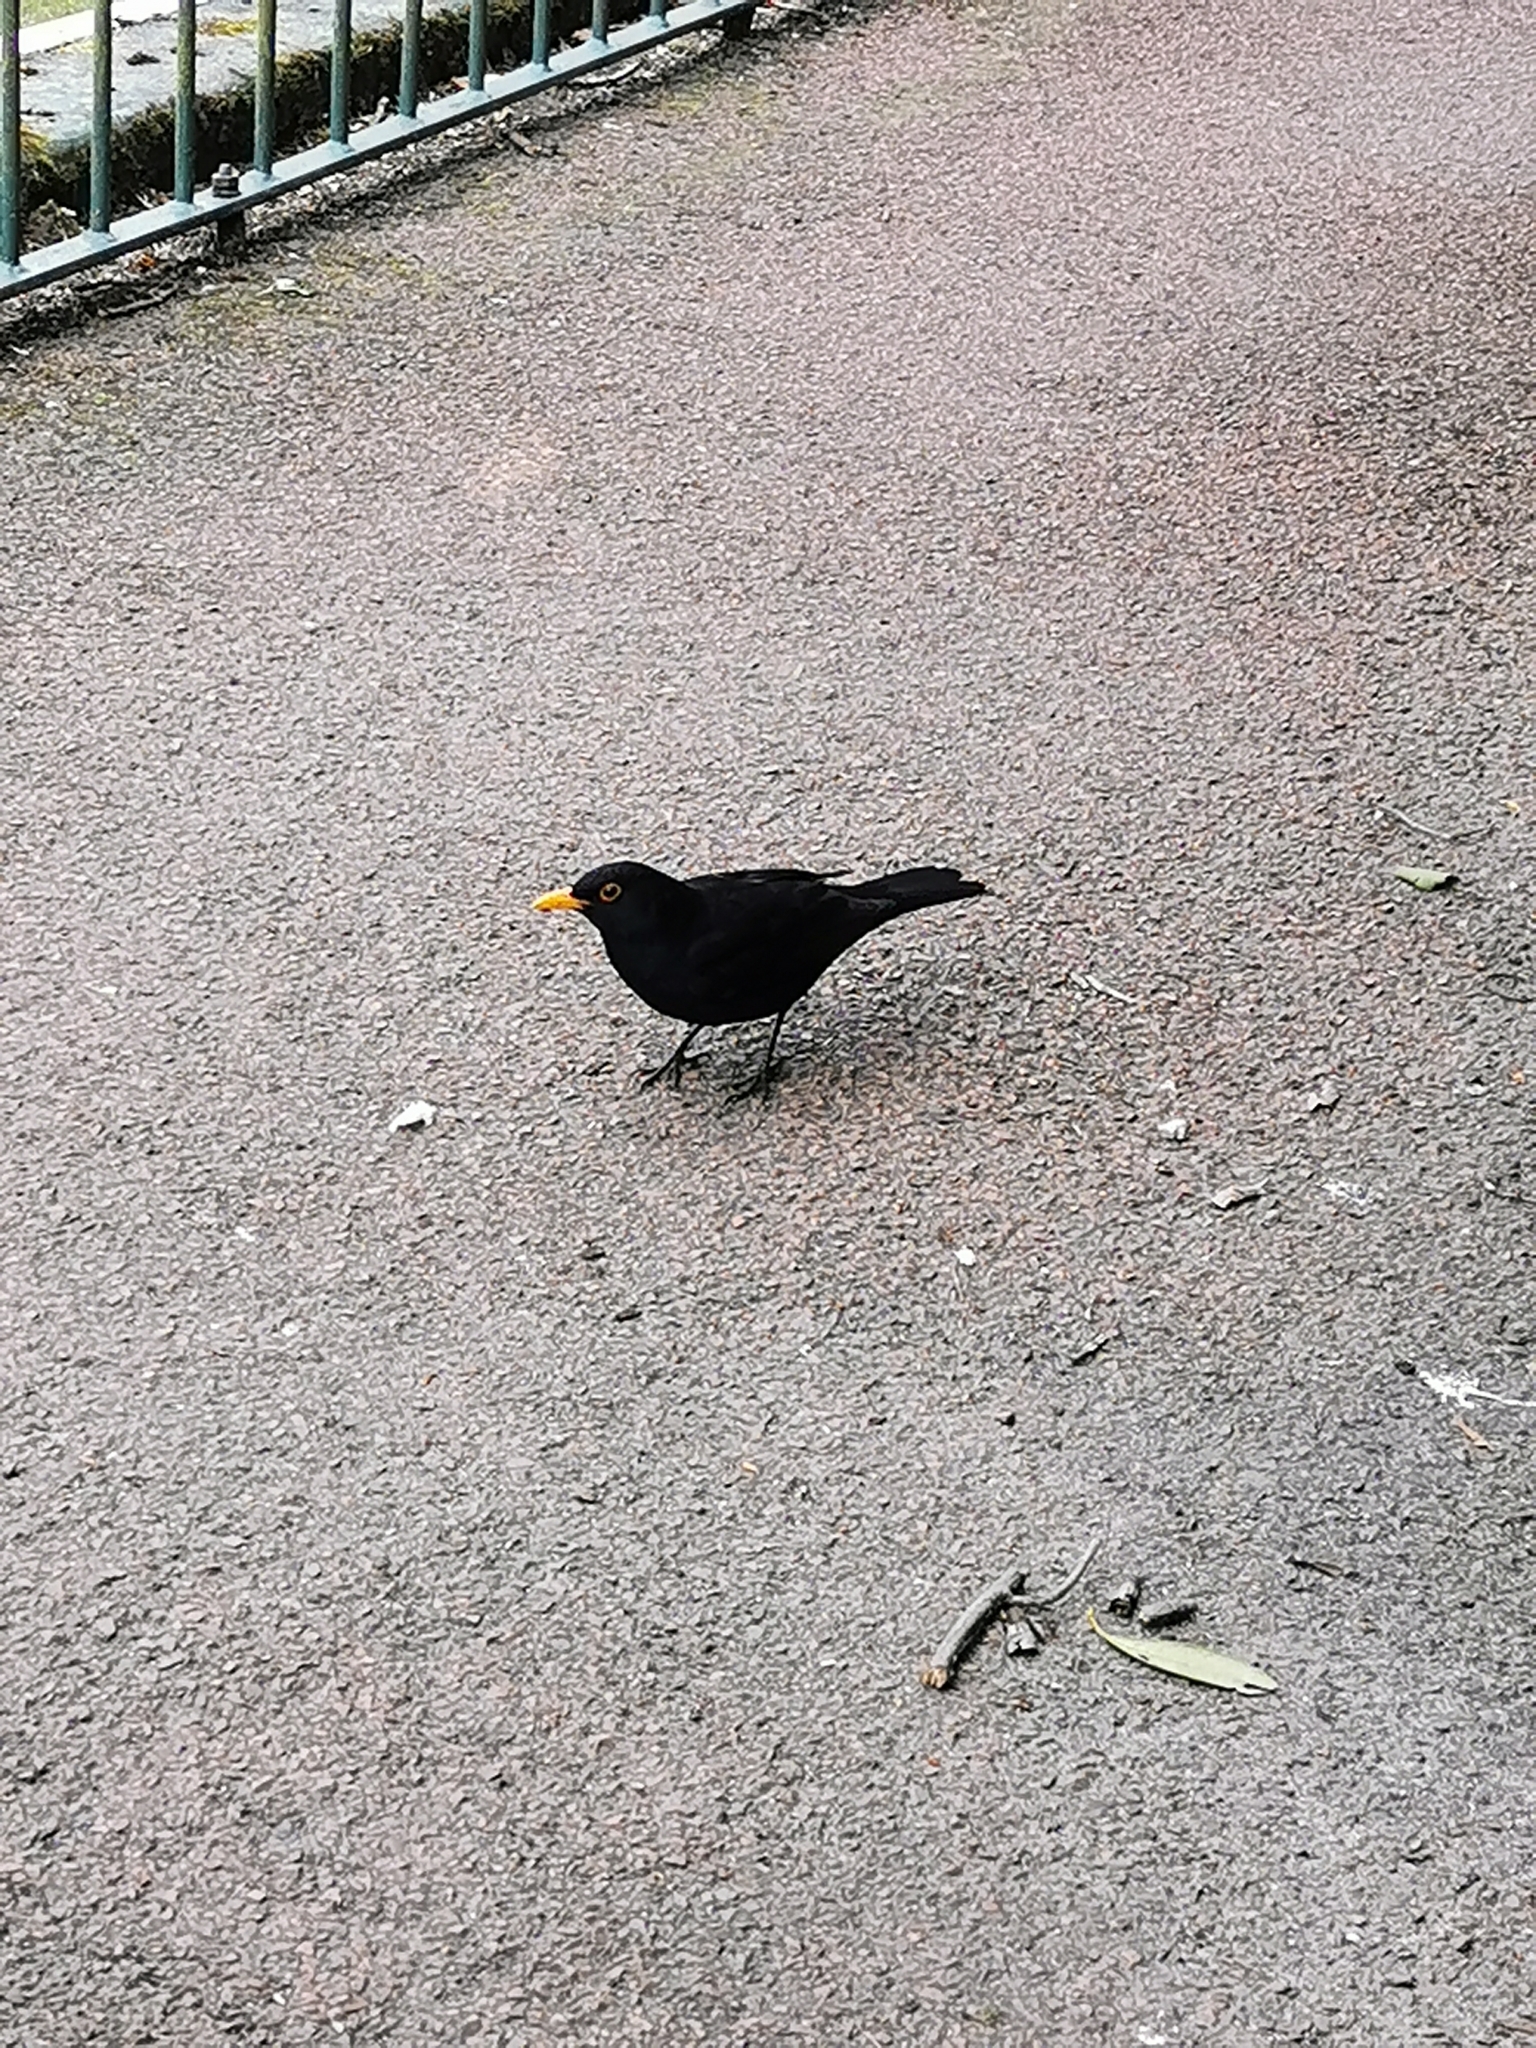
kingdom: Animalia
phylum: Chordata
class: Aves
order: Passeriformes
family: Turdidae
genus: Turdus
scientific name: Turdus merula
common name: Common blackbird
